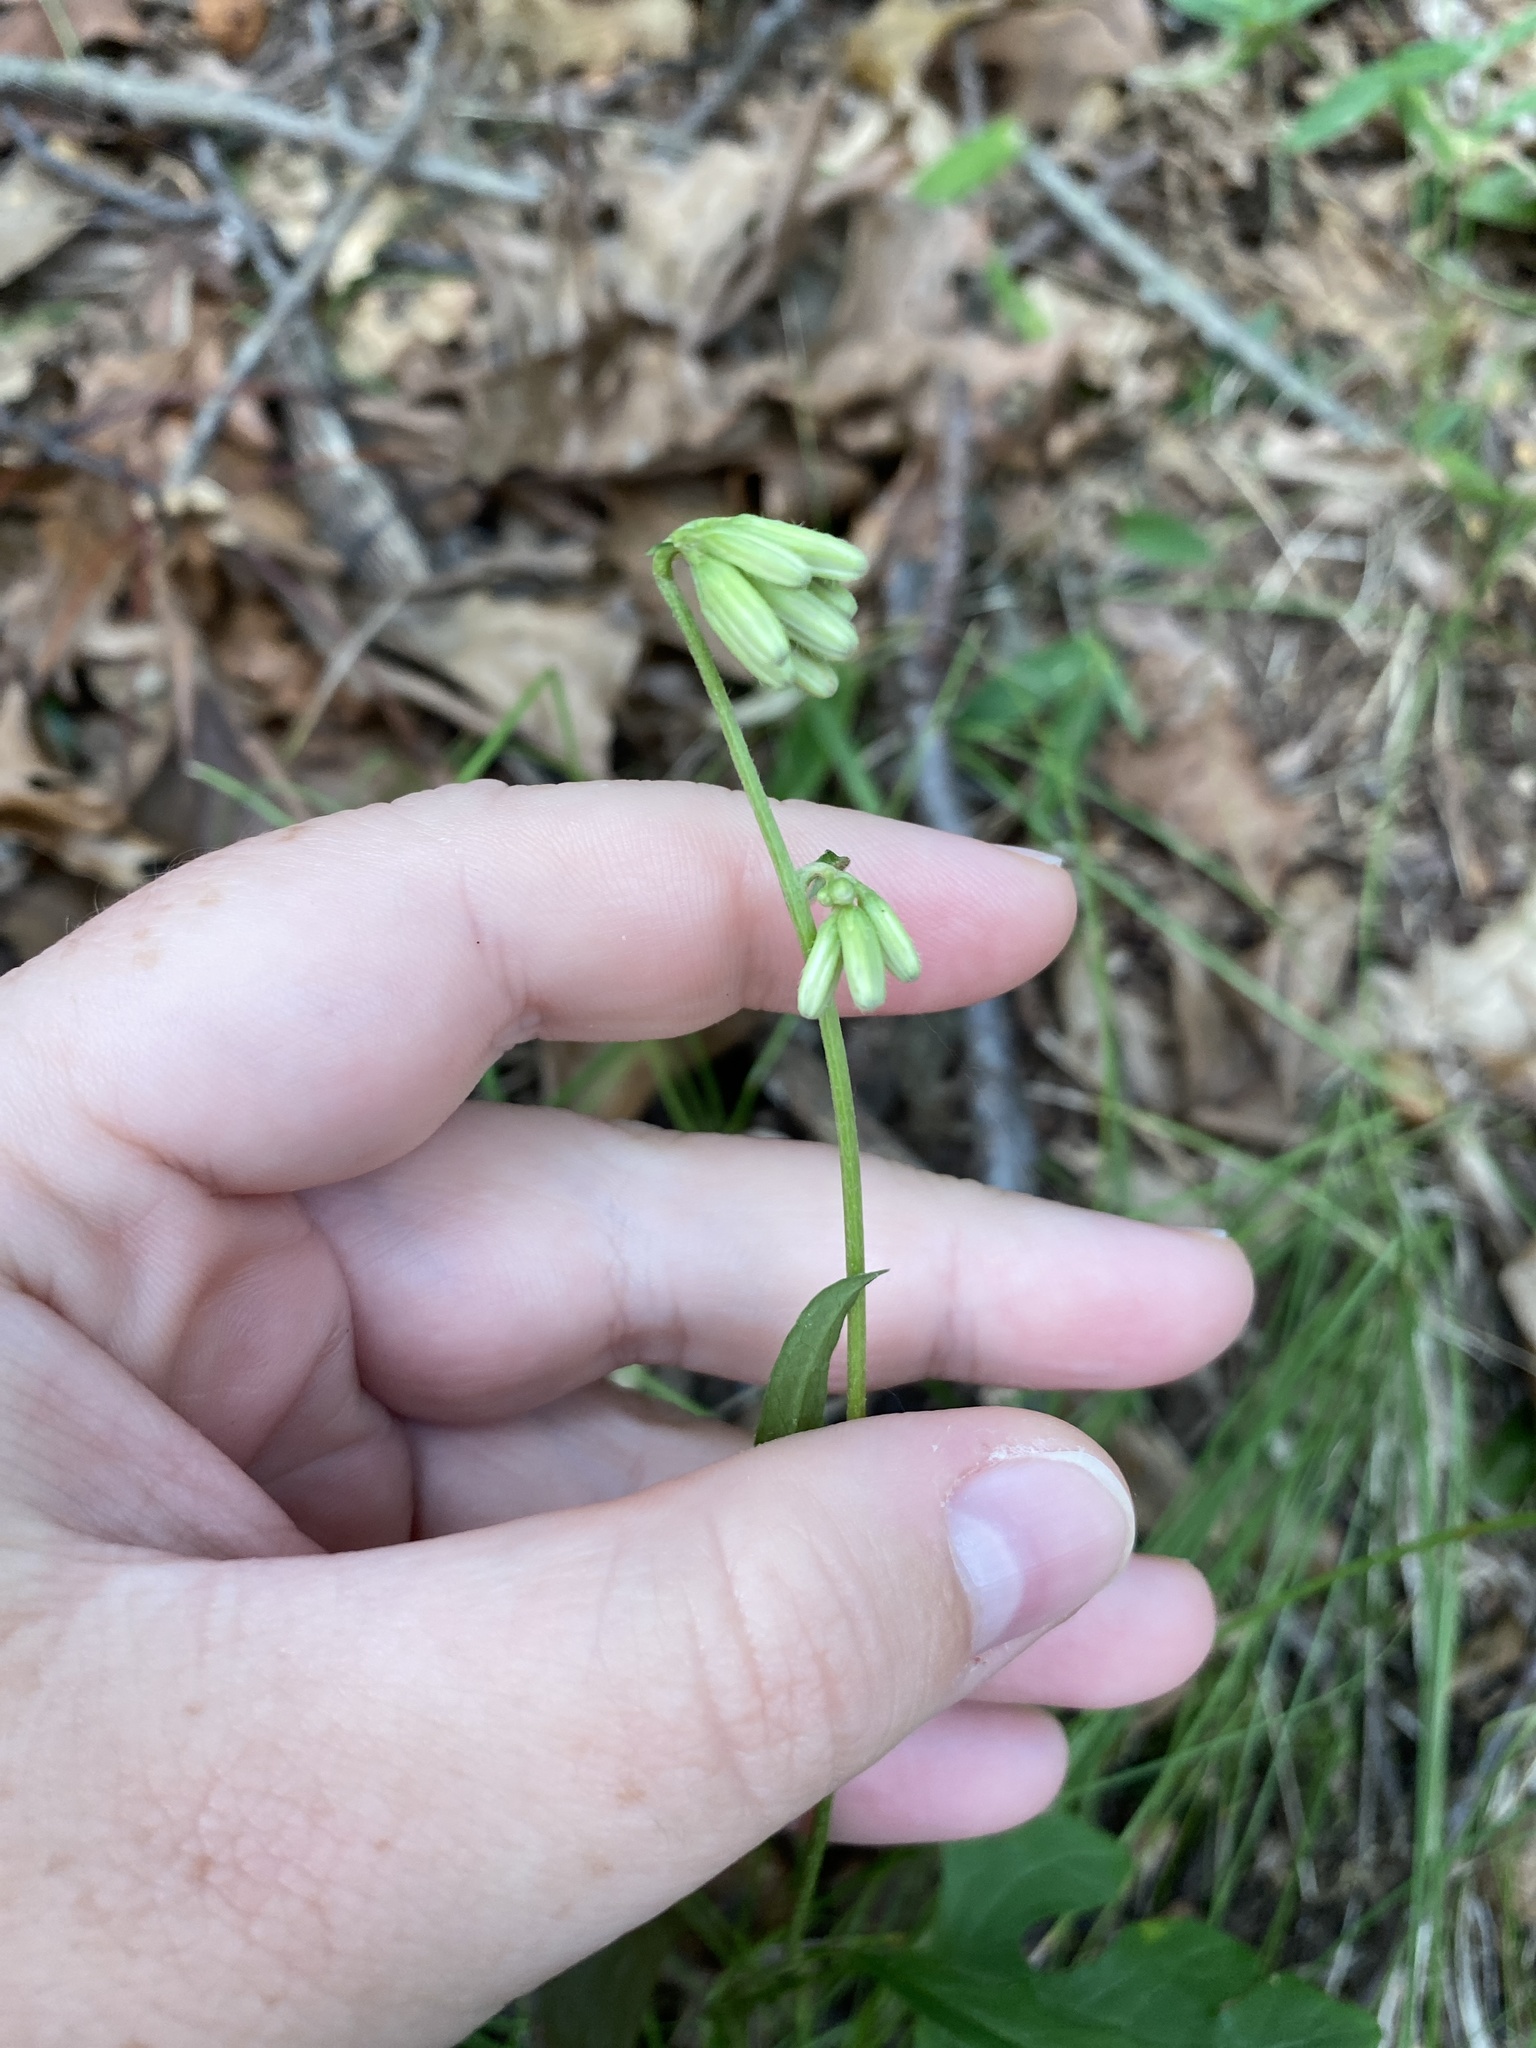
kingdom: Plantae
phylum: Tracheophyta
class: Magnoliopsida
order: Asterales
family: Asteraceae
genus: Nabalus
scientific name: Nabalus serpentarius
